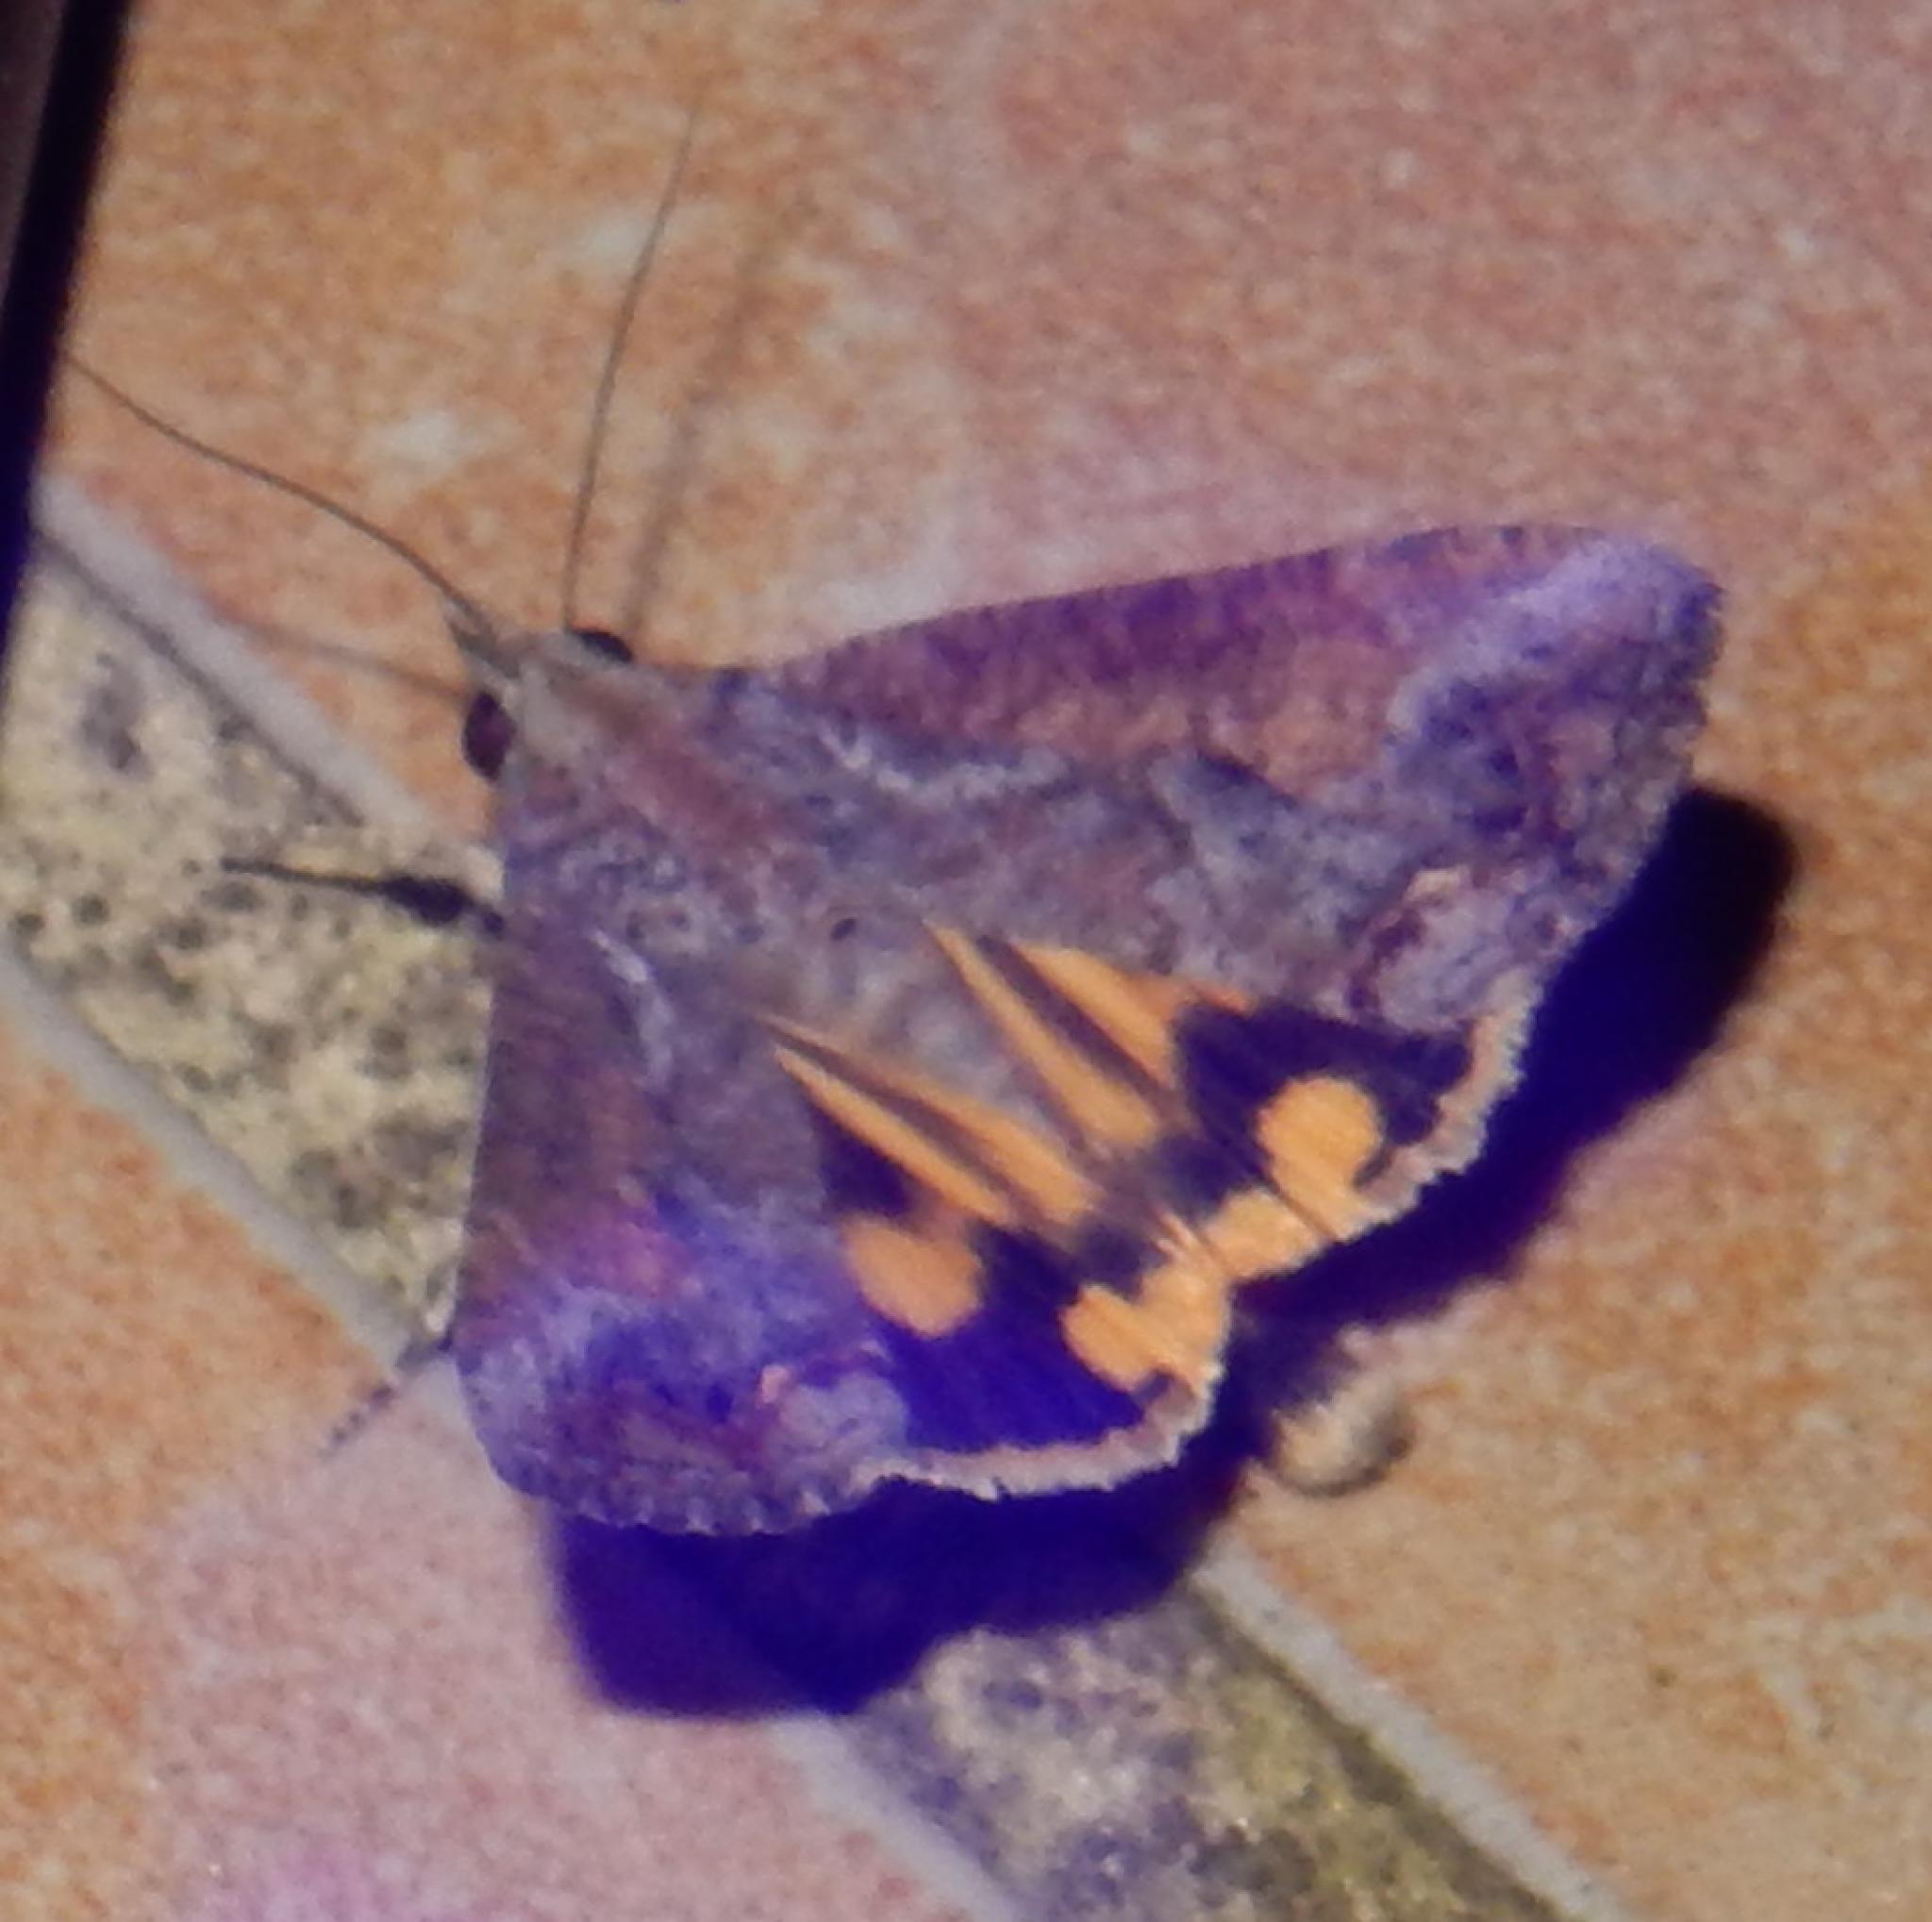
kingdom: Animalia
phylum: Arthropoda
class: Insecta
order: Lepidoptera
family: Erebidae
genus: Hypocala
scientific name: Hypocala rostrata
